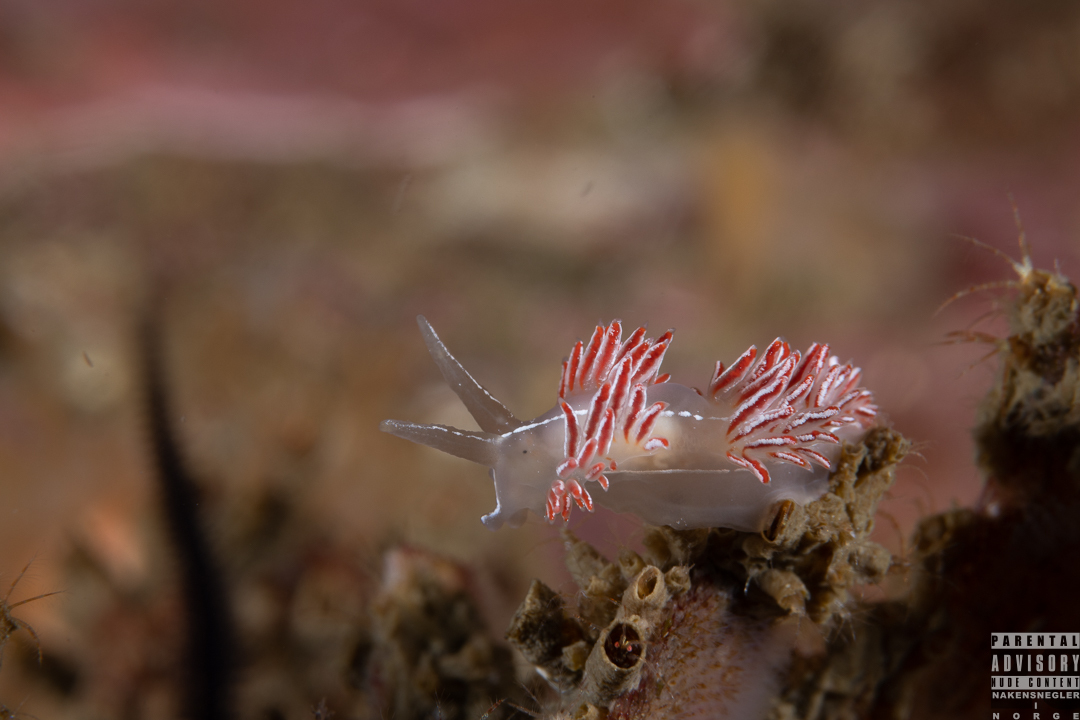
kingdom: Animalia
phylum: Mollusca
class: Gastropoda
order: Nudibranchia
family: Coryphellidae
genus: Coryphella
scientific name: Coryphella chriskaugei
